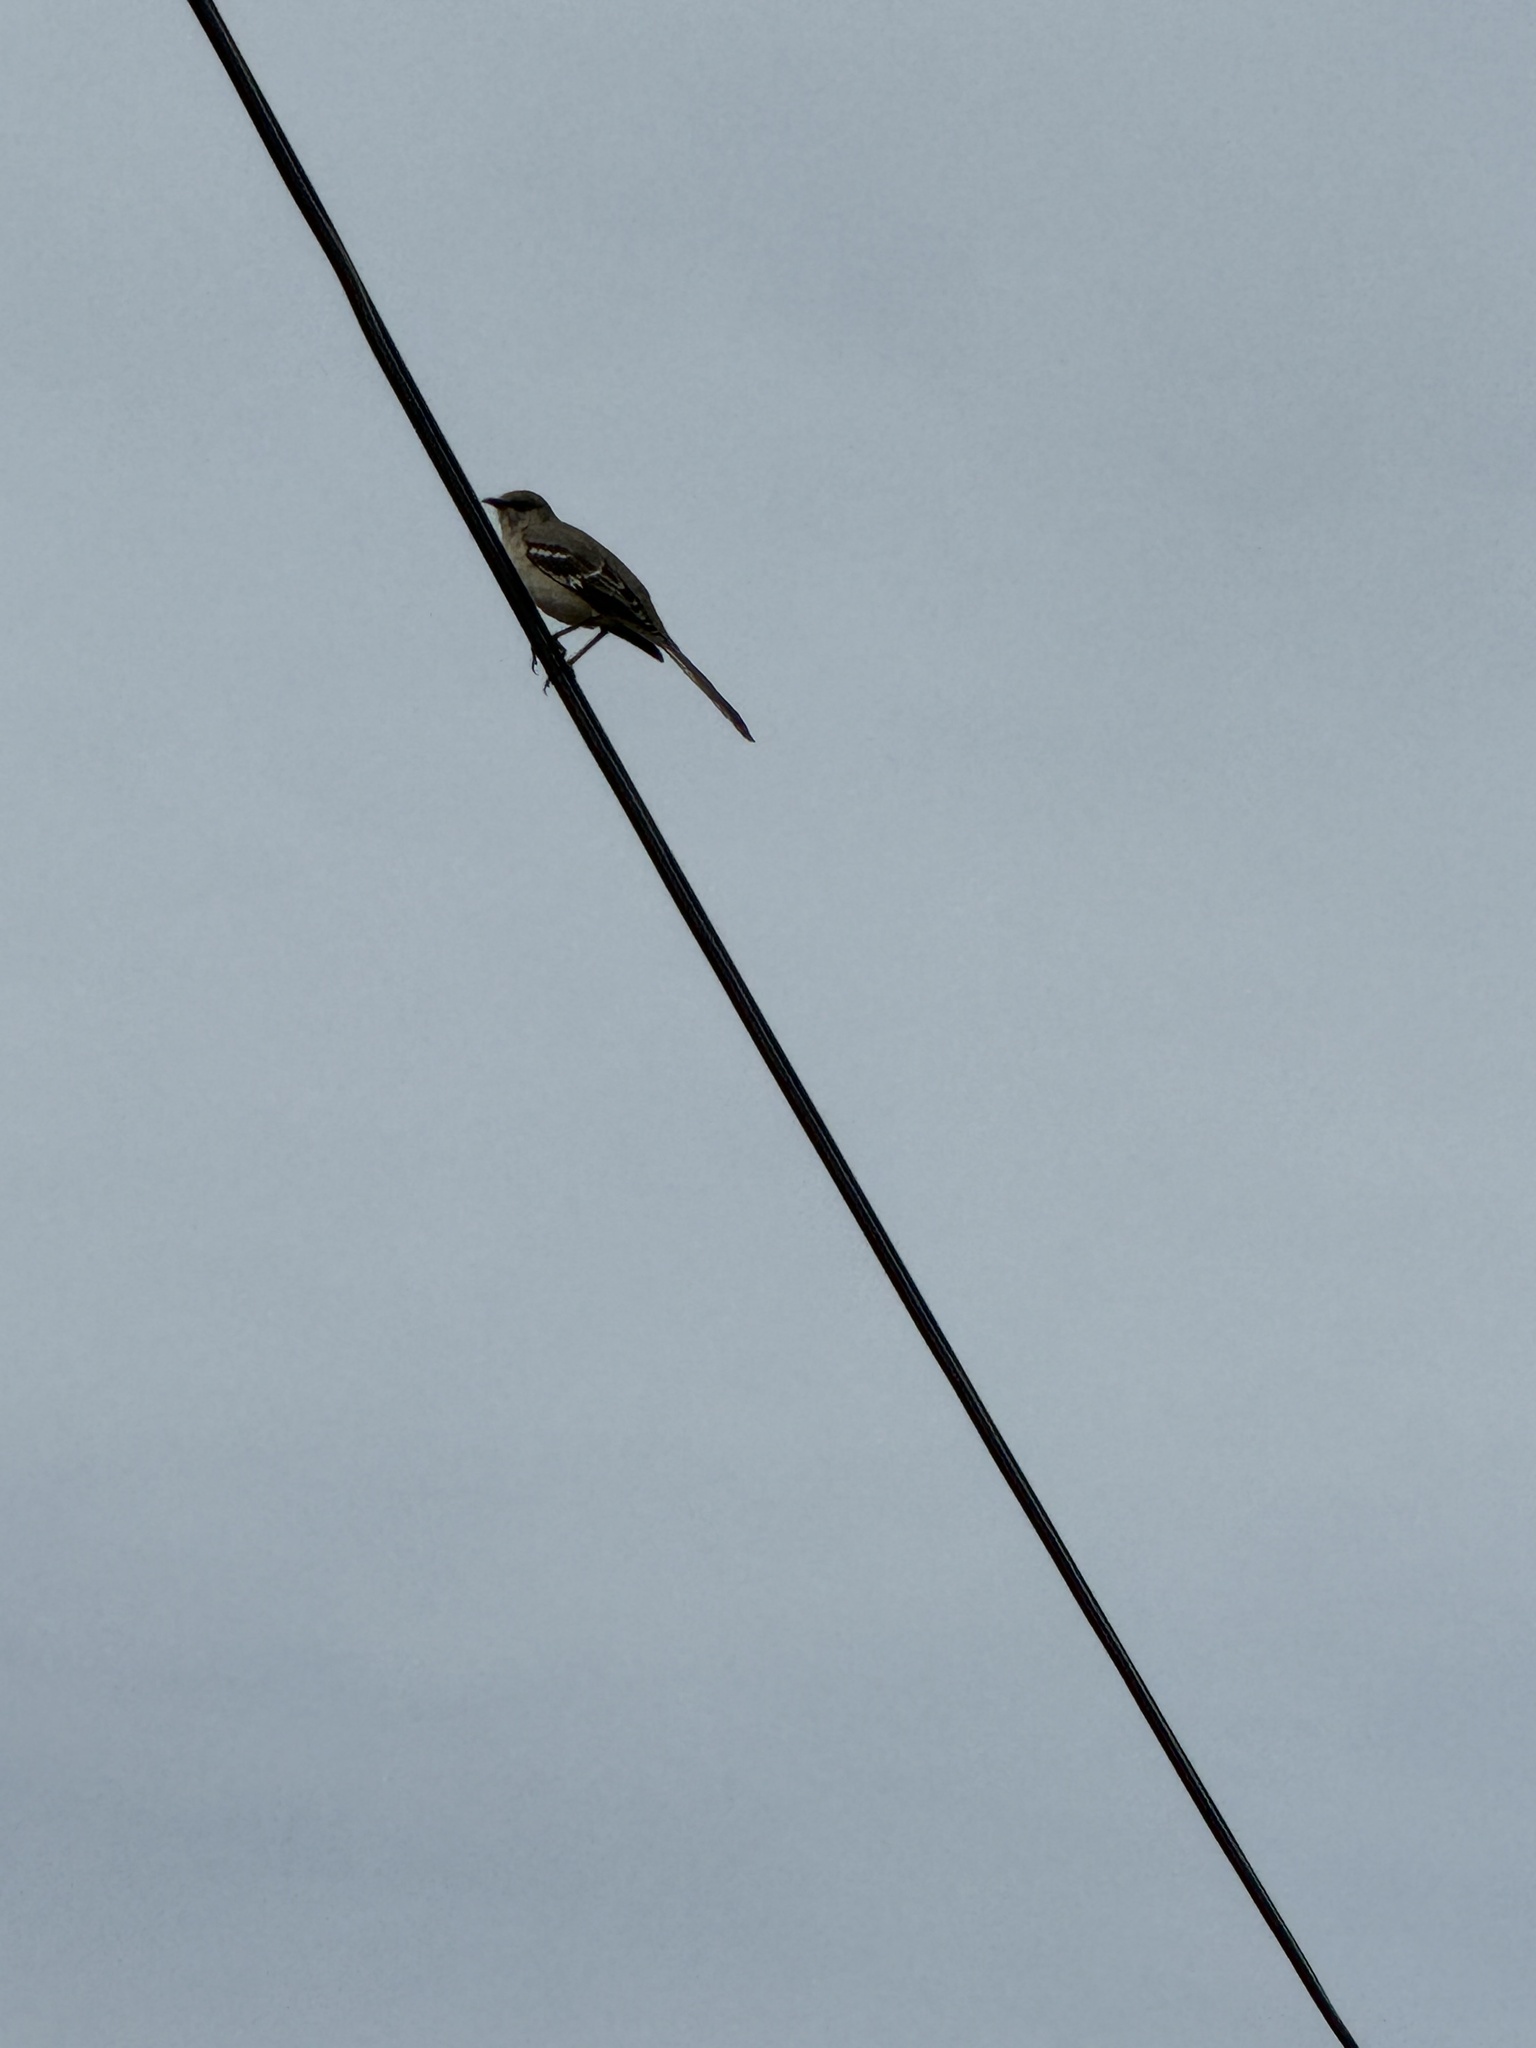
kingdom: Animalia
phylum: Chordata
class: Aves
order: Passeriformes
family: Mimidae
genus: Mimus
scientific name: Mimus polyglottos
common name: Northern mockingbird
